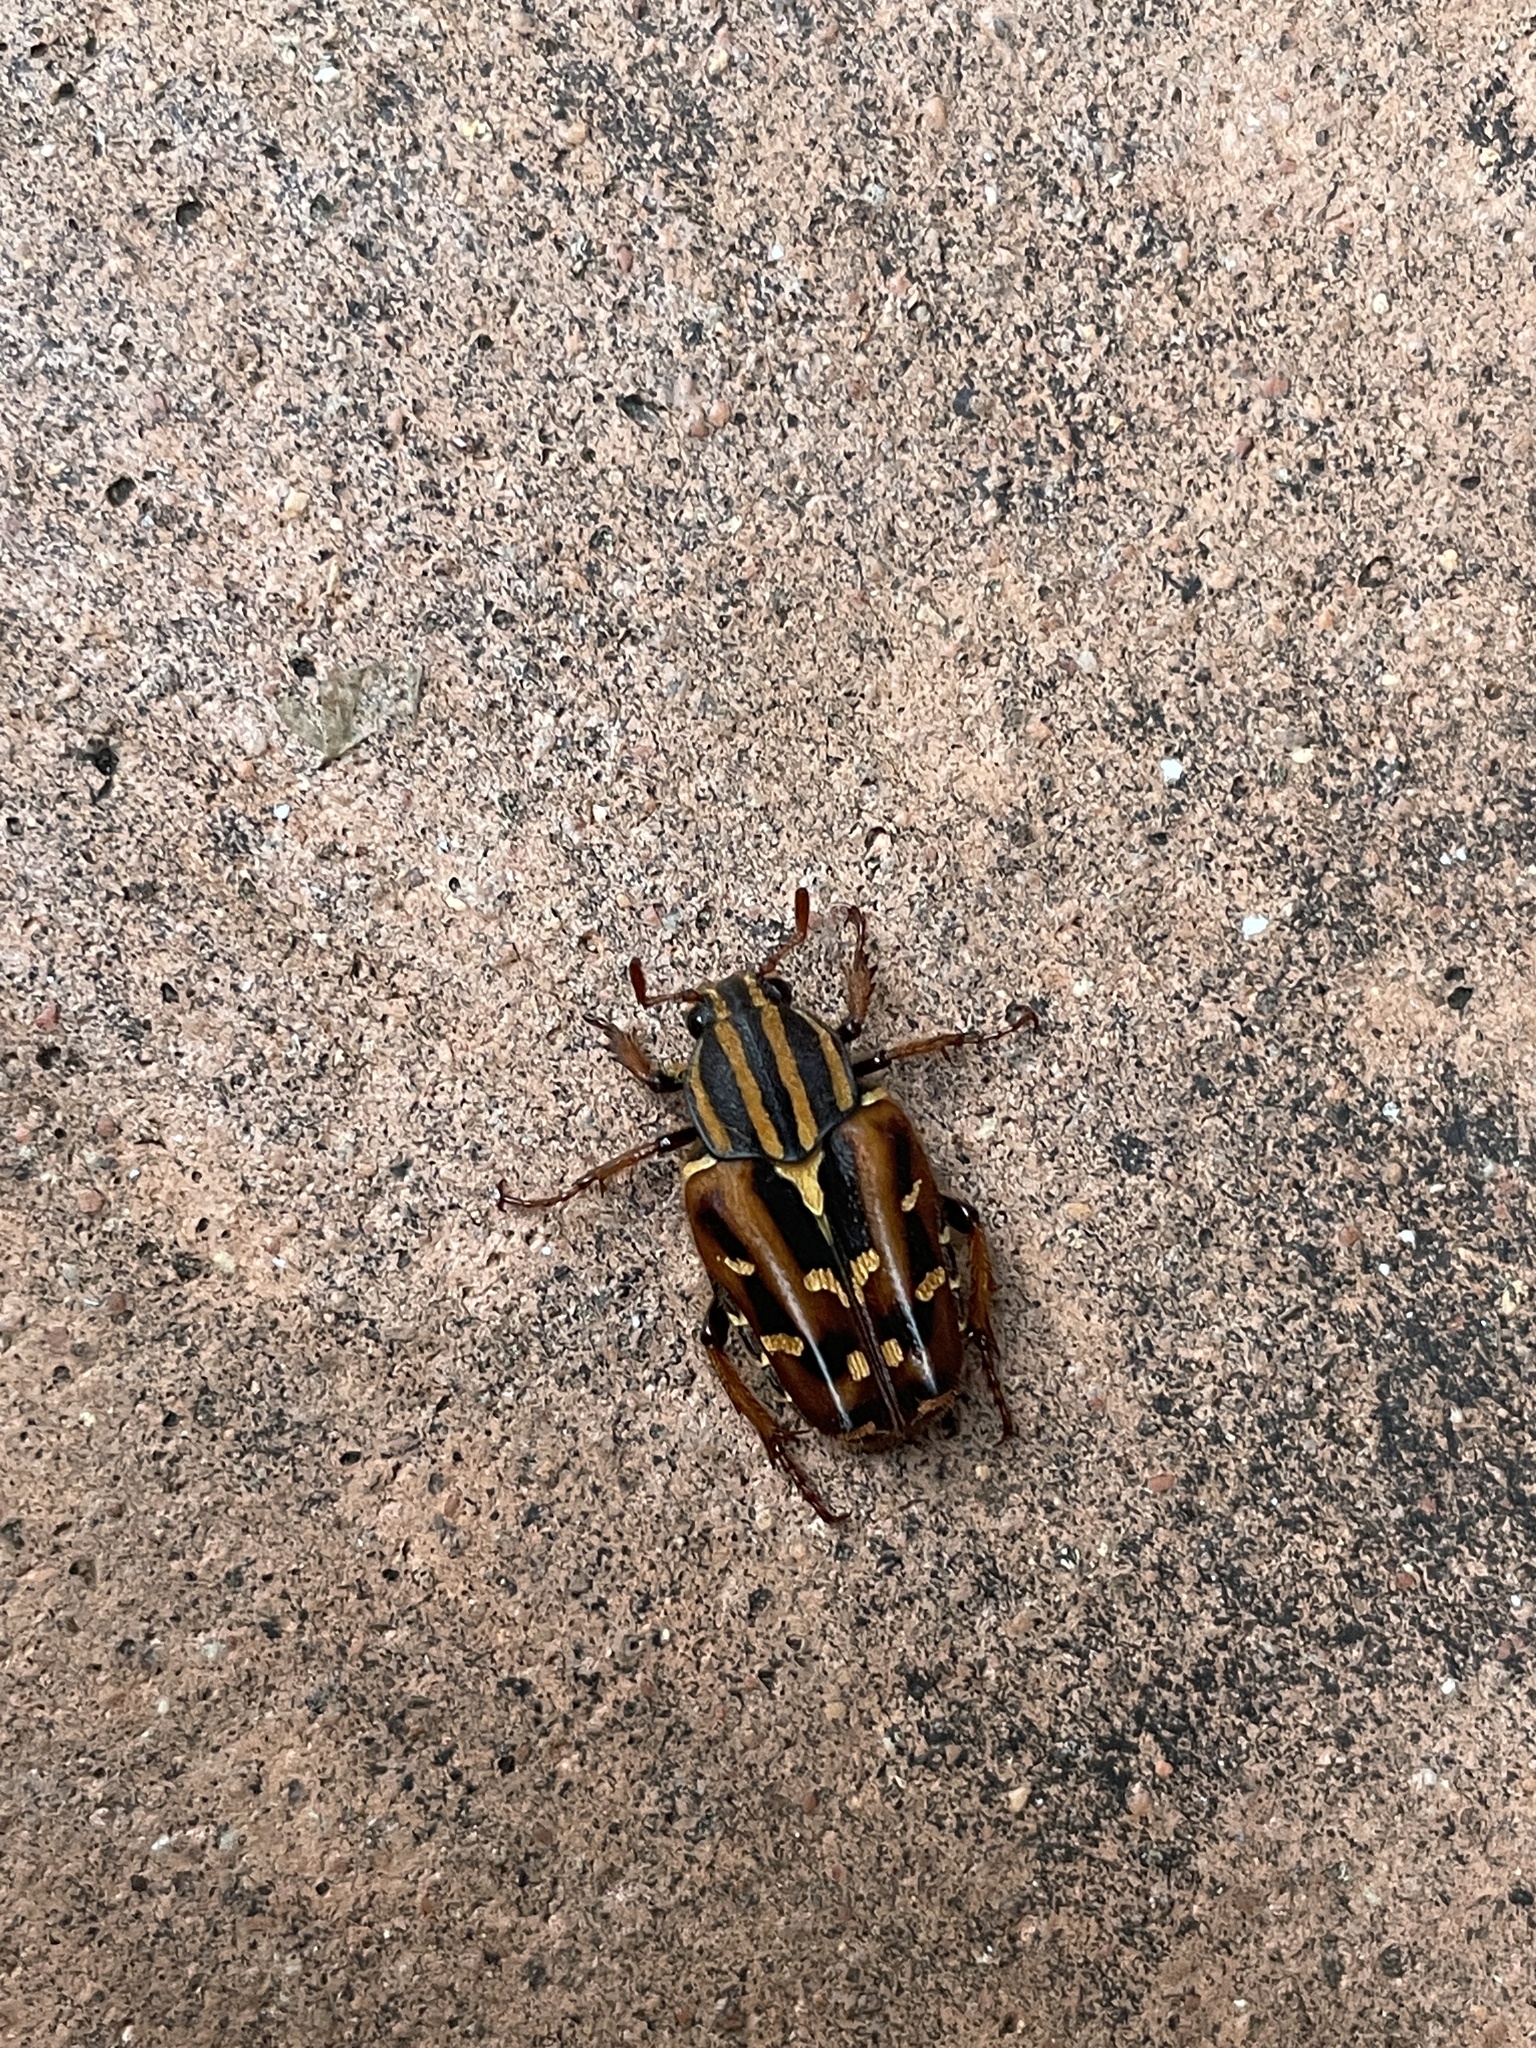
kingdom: Animalia
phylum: Arthropoda
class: Insecta
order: Coleoptera
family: Scarabaeidae
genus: Euselates
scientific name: Euselates magna
